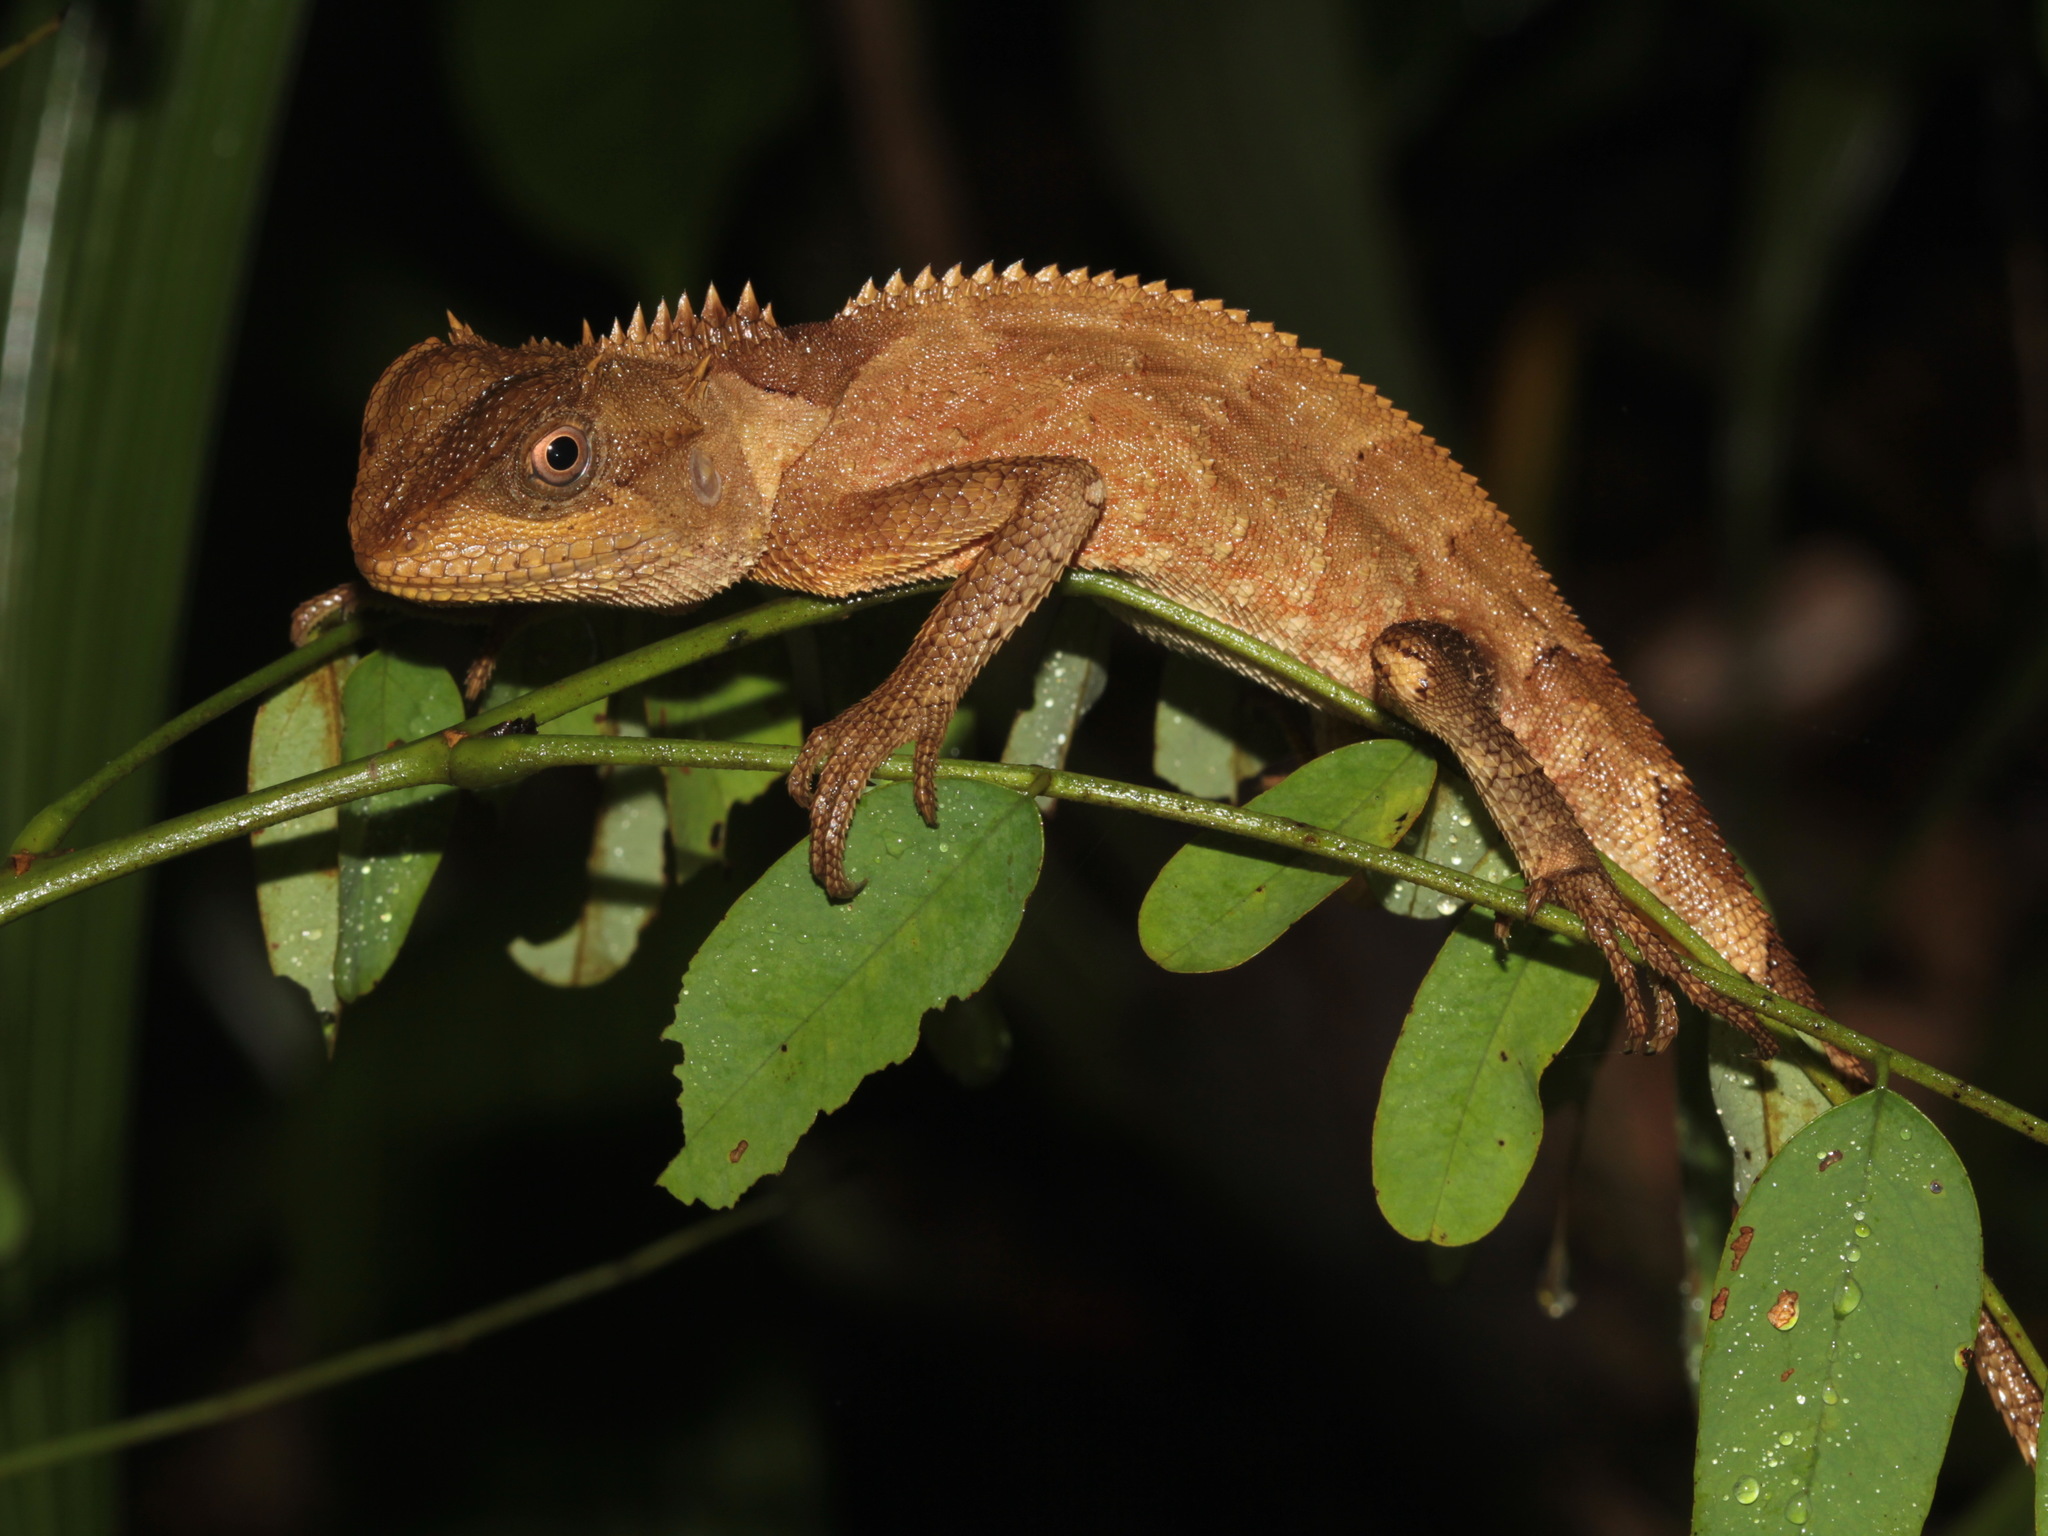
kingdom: Animalia
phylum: Chordata
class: Squamata
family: Agamidae
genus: Acanthosaura
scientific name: Acanthosaura crucigera
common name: Boulenger's pricklenape
